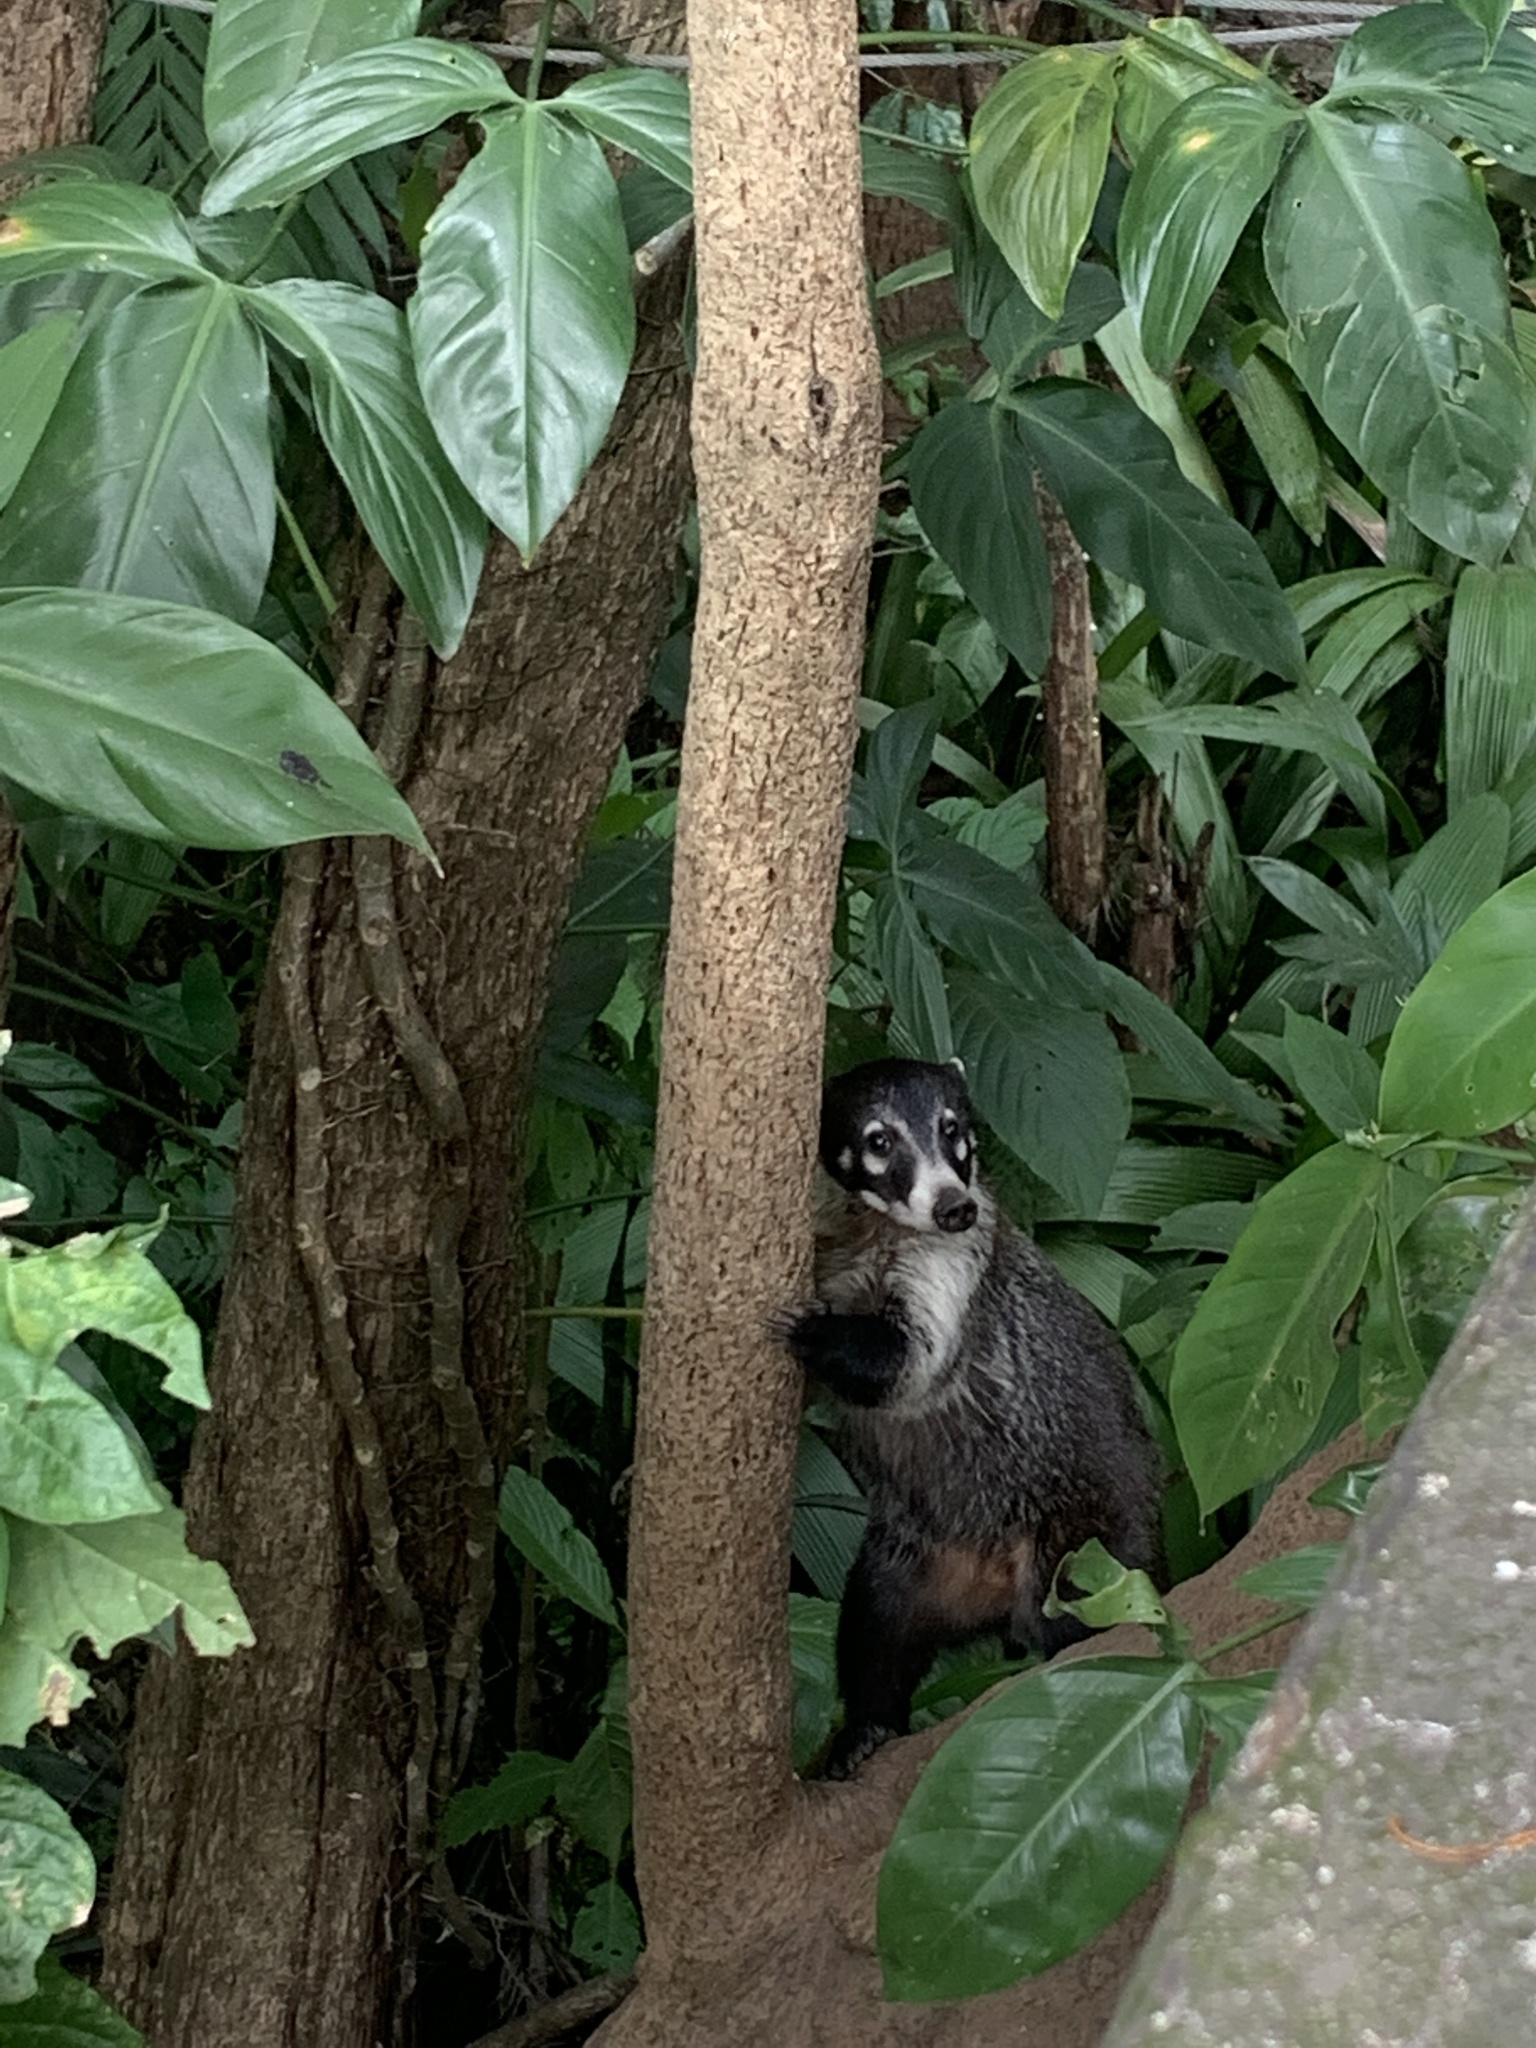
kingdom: Animalia
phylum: Chordata
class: Mammalia
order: Carnivora
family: Procyonidae
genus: Nasua
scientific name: Nasua narica
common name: White-nosed coati
